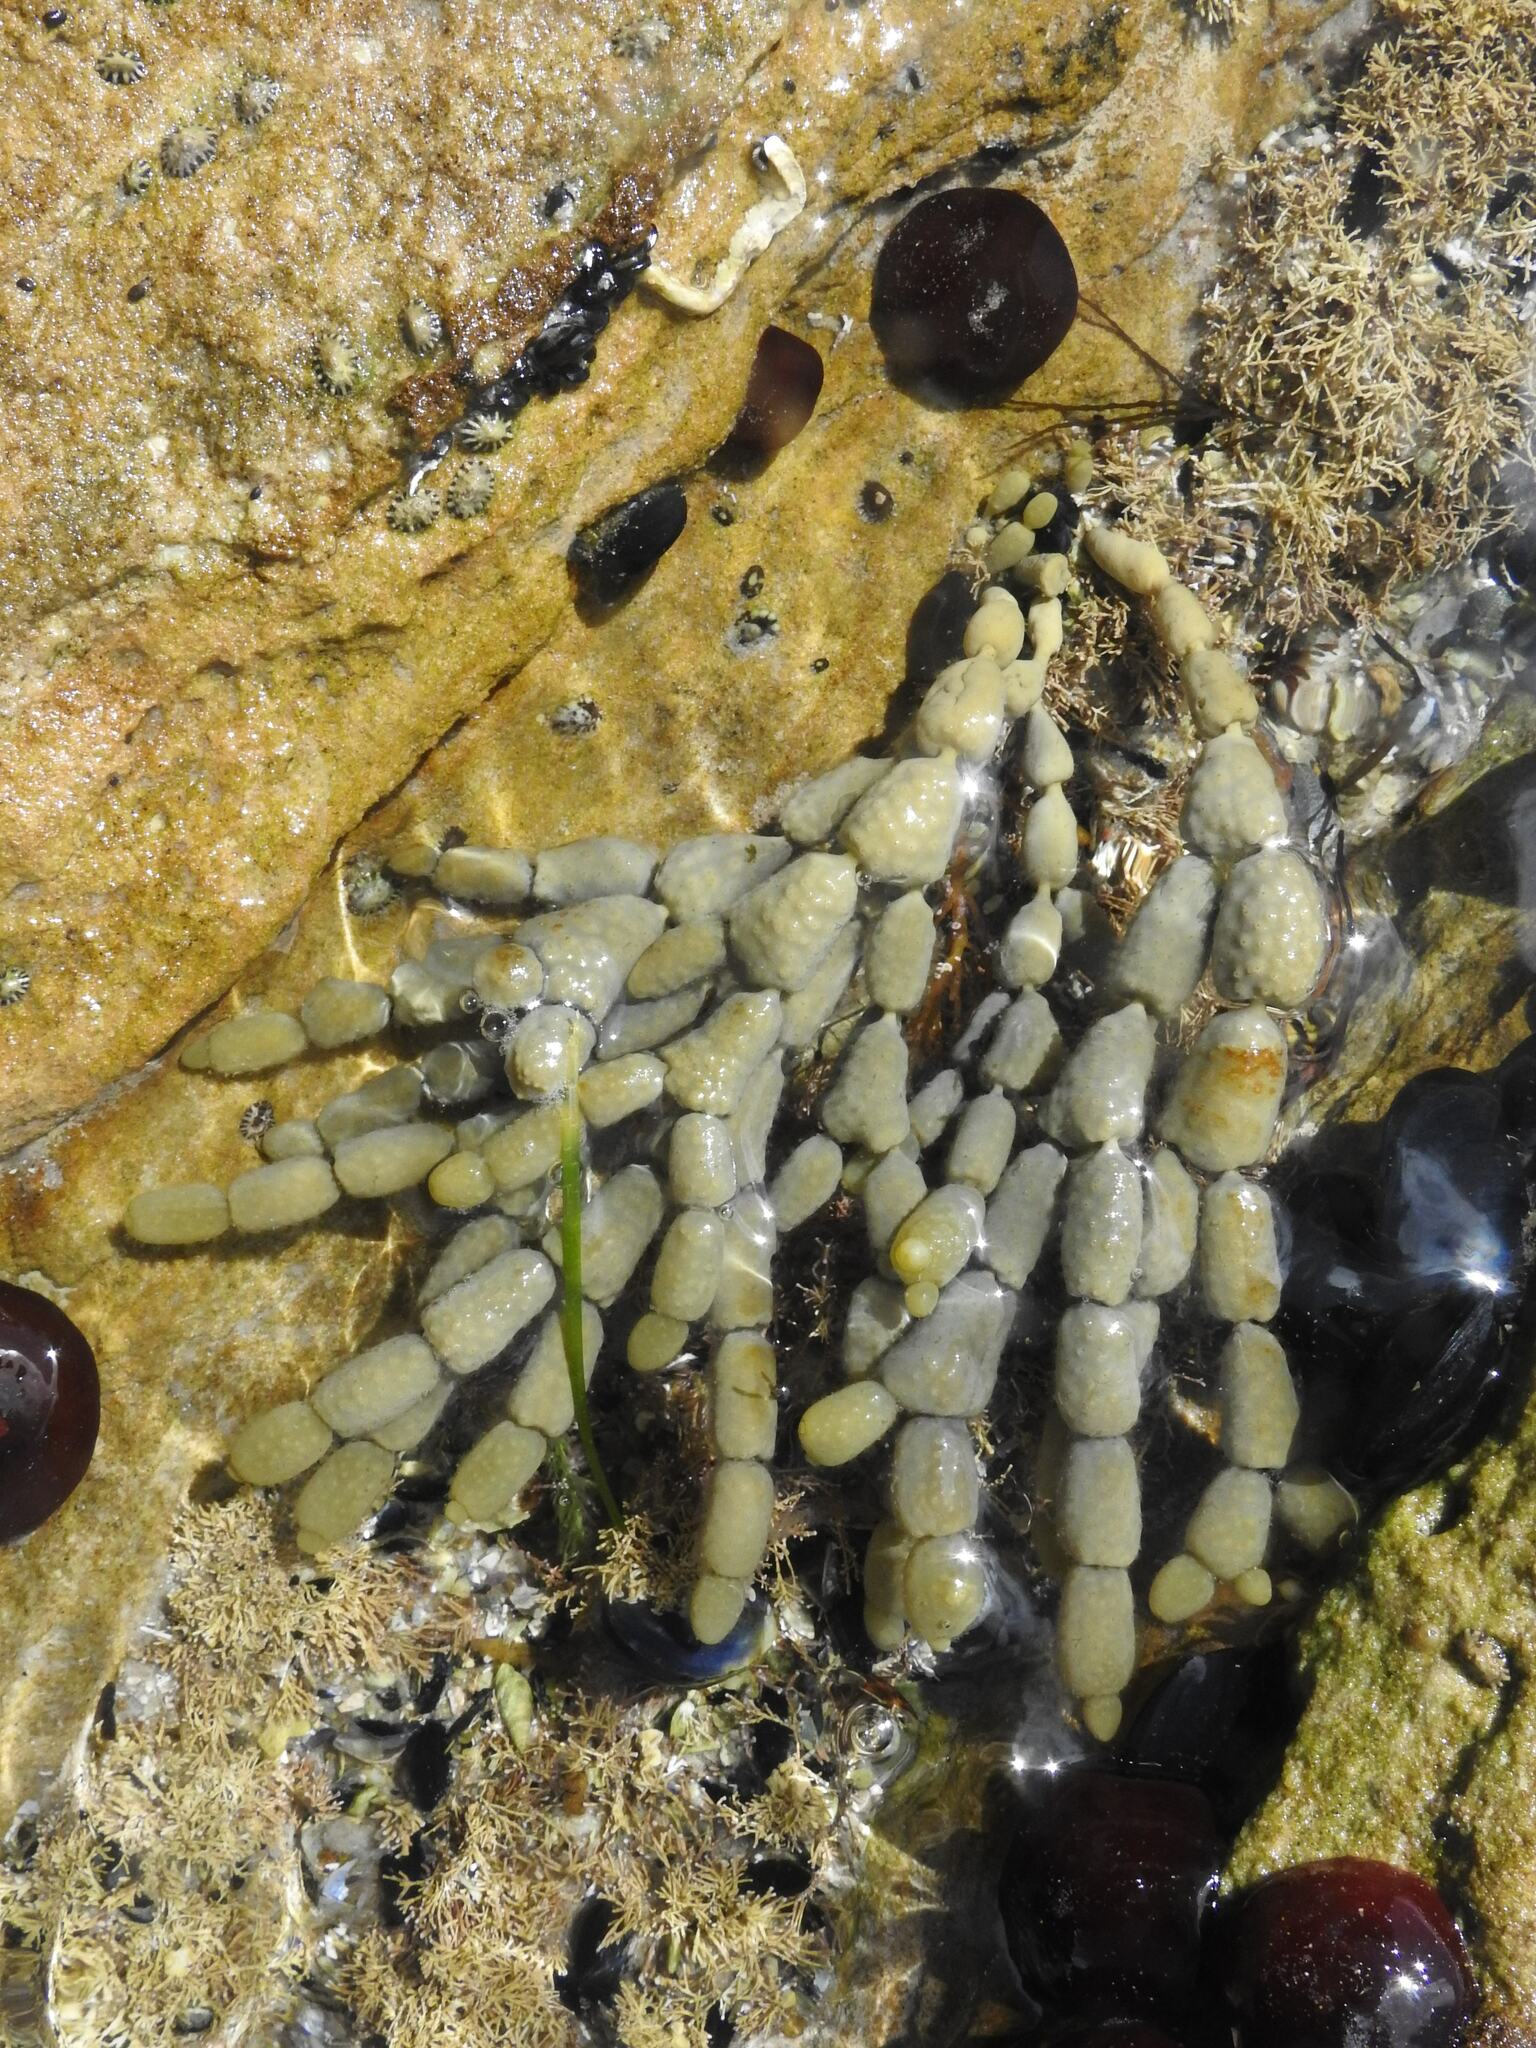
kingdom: Chromista
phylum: Ochrophyta
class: Phaeophyceae
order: Fucales
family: Hormosiraceae
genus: Hormosira
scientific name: Hormosira banksii
